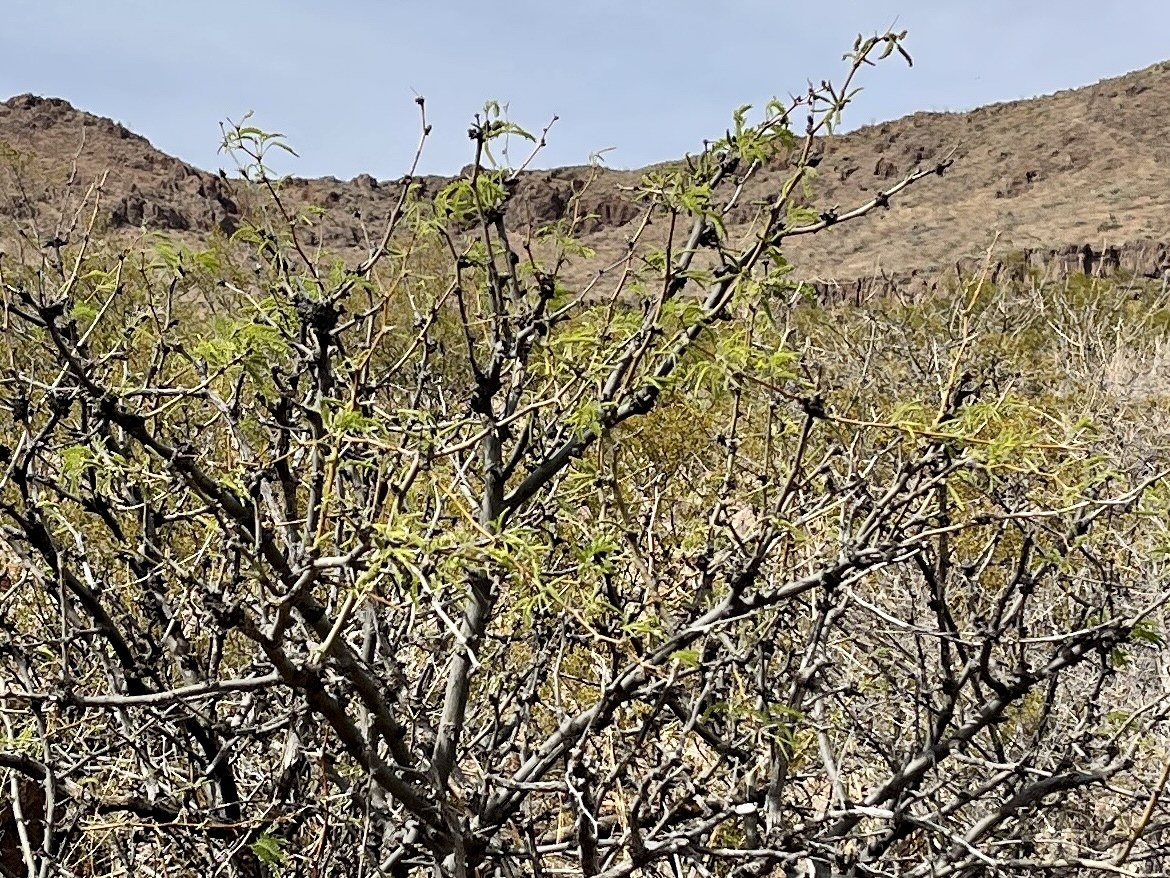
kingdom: Plantae
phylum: Tracheophyta
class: Magnoliopsida
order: Fabales
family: Fabaceae
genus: Prosopis
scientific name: Prosopis glandulosa
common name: Honey mesquite
